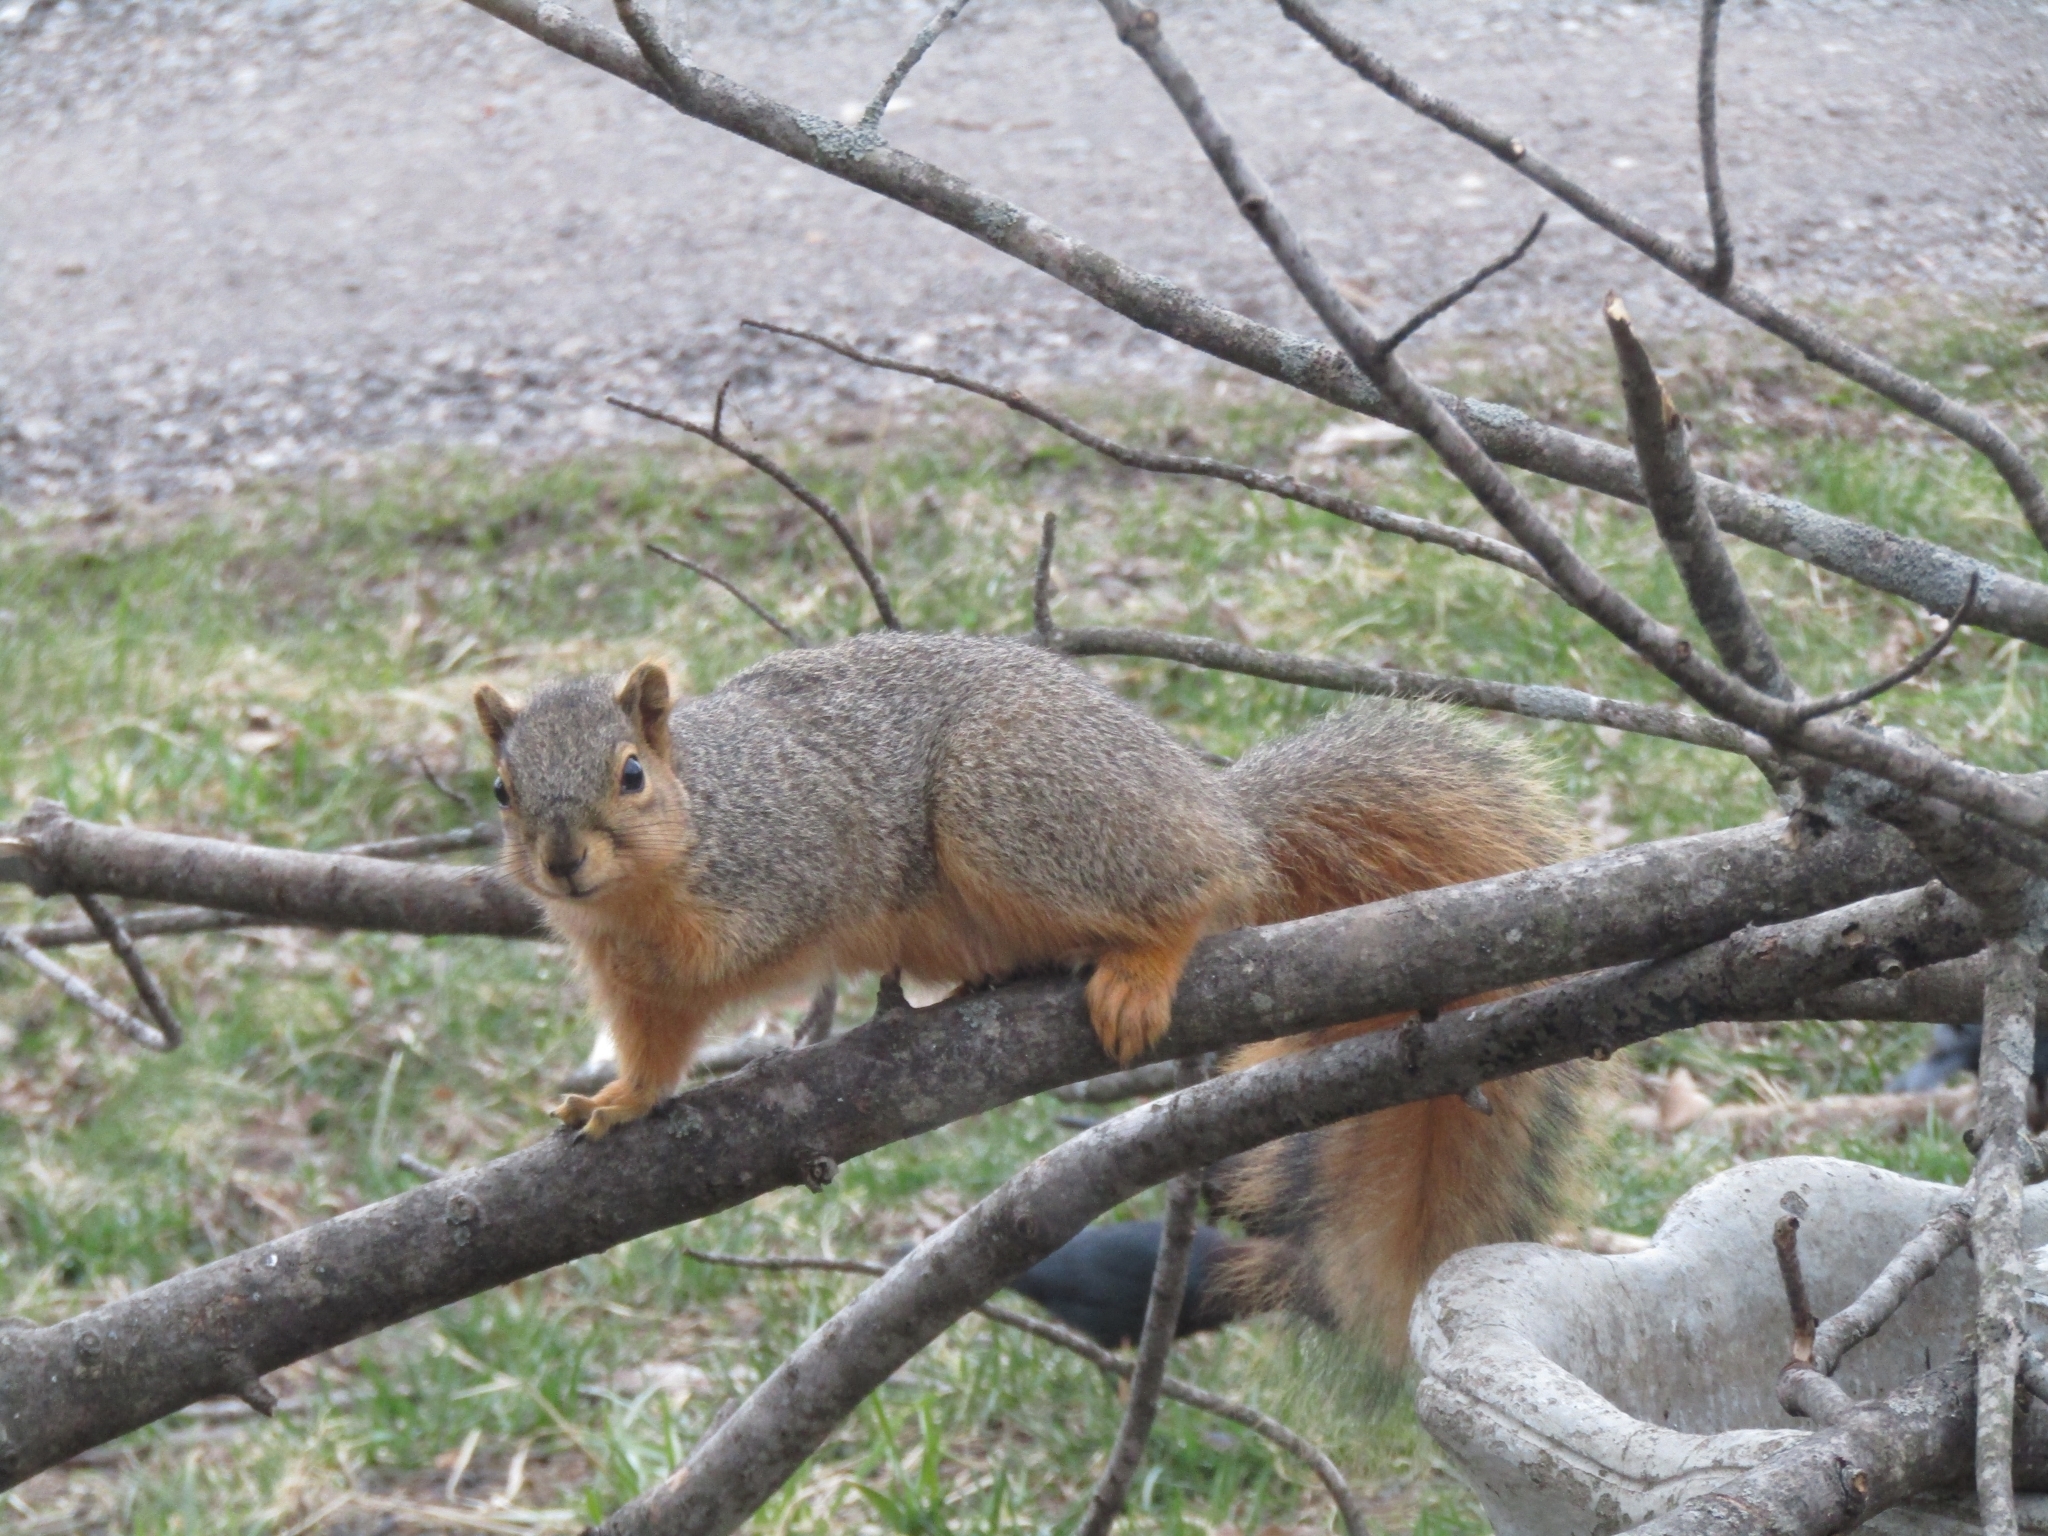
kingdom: Animalia
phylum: Chordata
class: Mammalia
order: Rodentia
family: Sciuridae
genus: Sciurus
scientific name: Sciurus niger
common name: Fox squirrel
